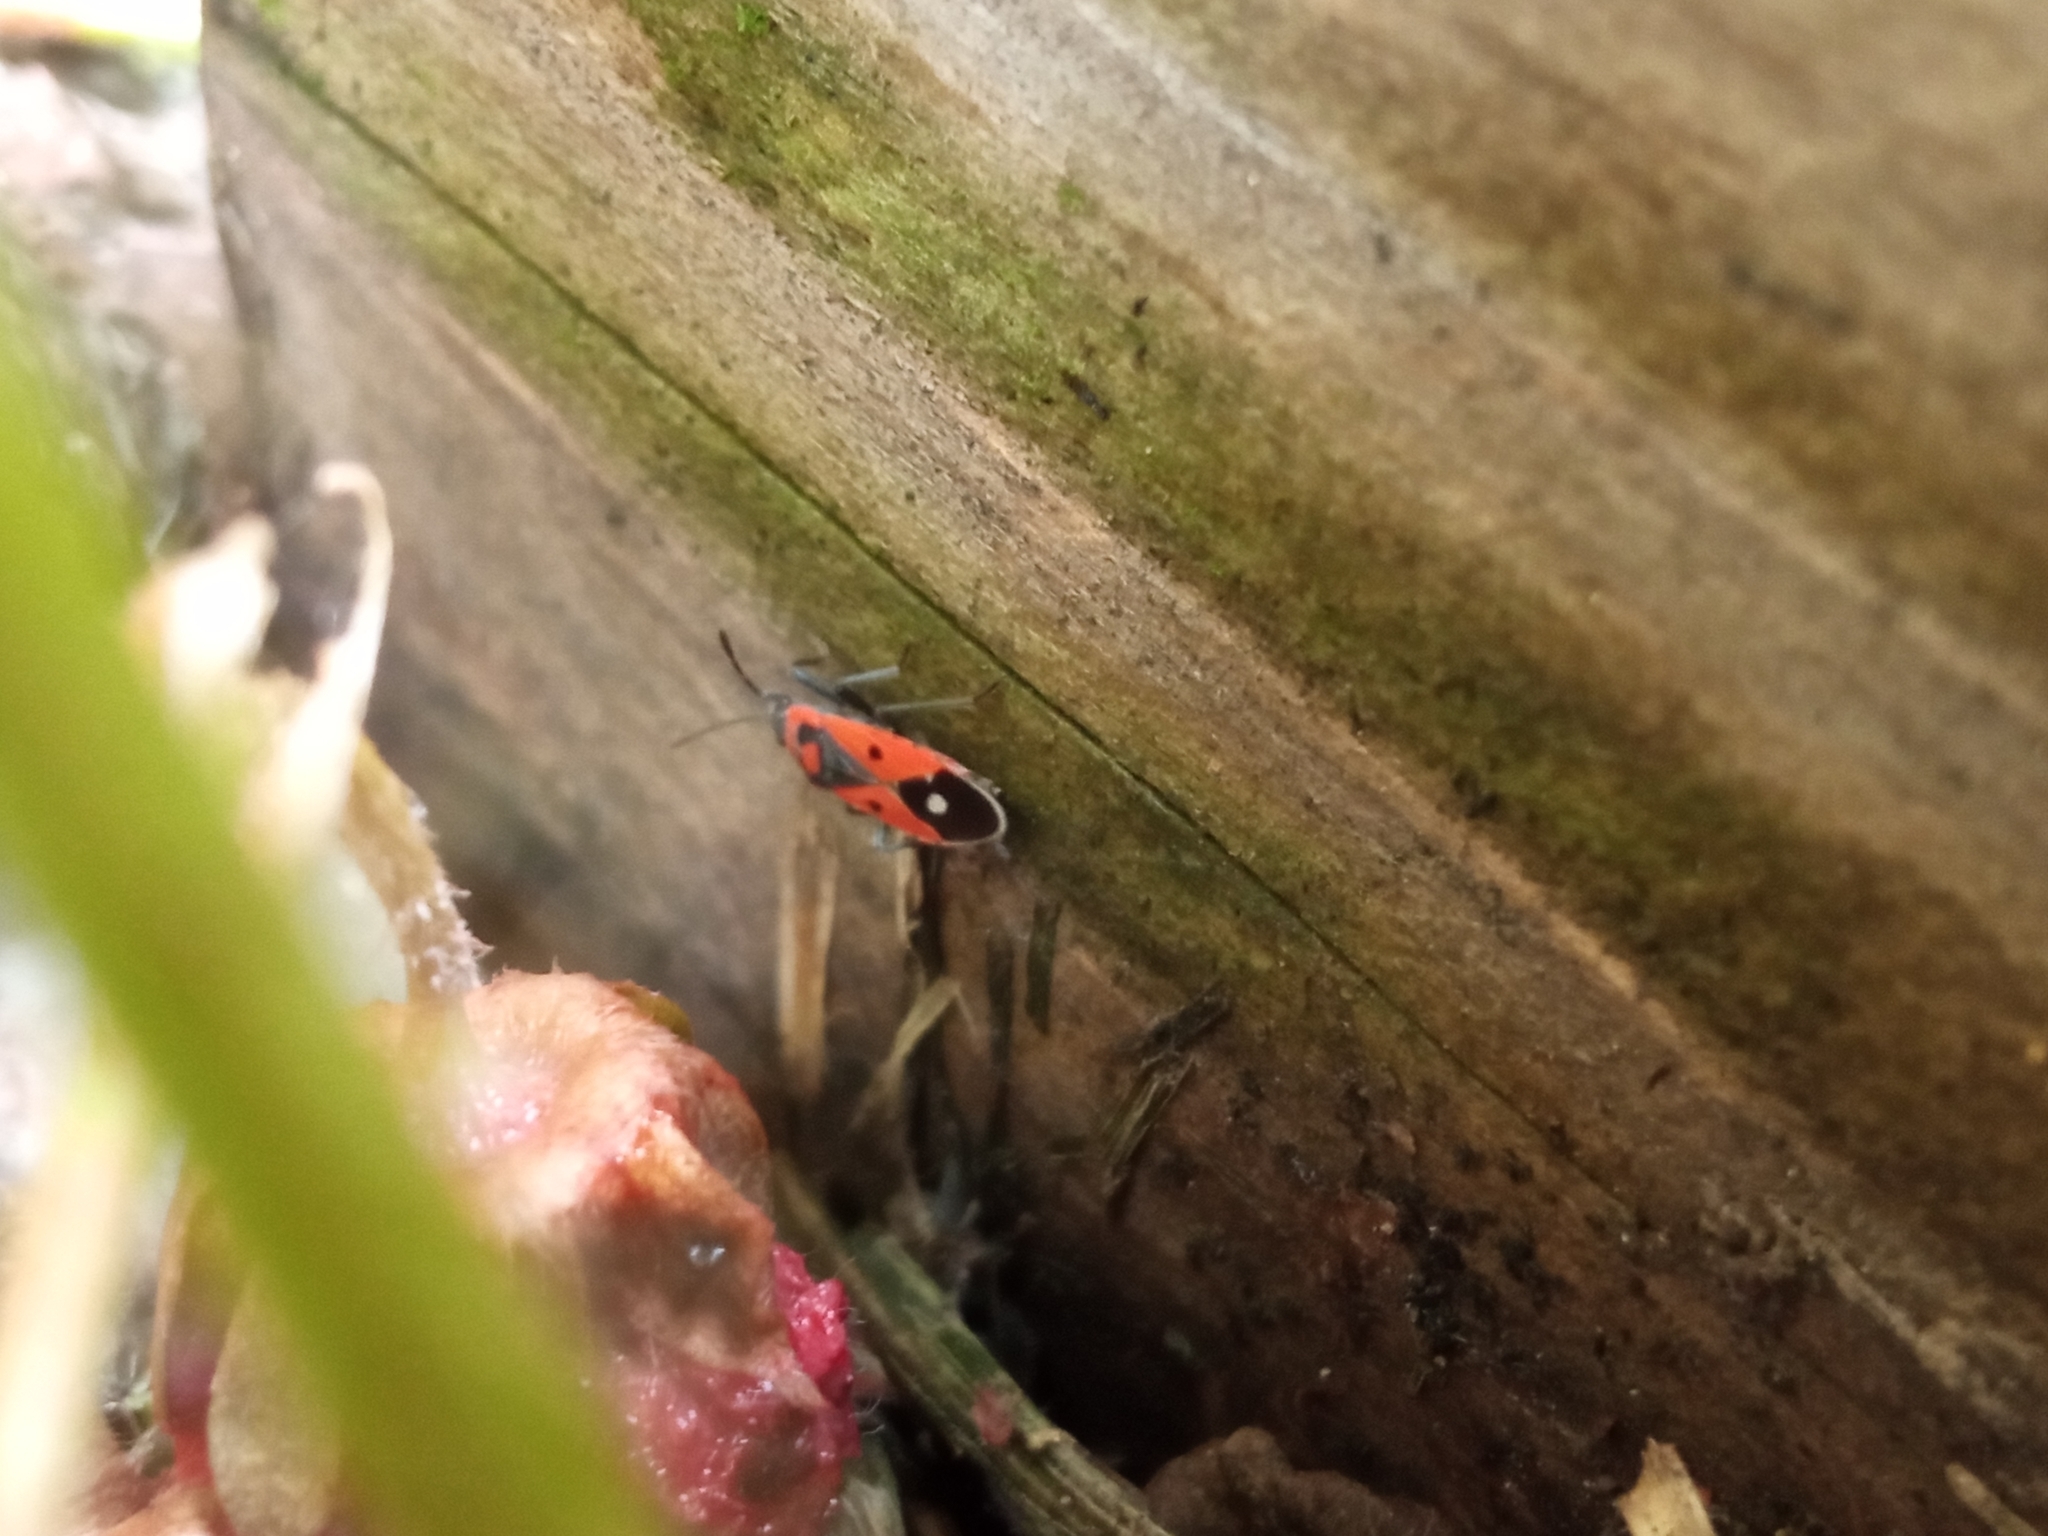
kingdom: Animalia
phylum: Arthropoda
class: Insecta
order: Hemiptera
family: Lygaeidae
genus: Melanocoryphus
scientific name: Melanocoryphus albomaculatus
